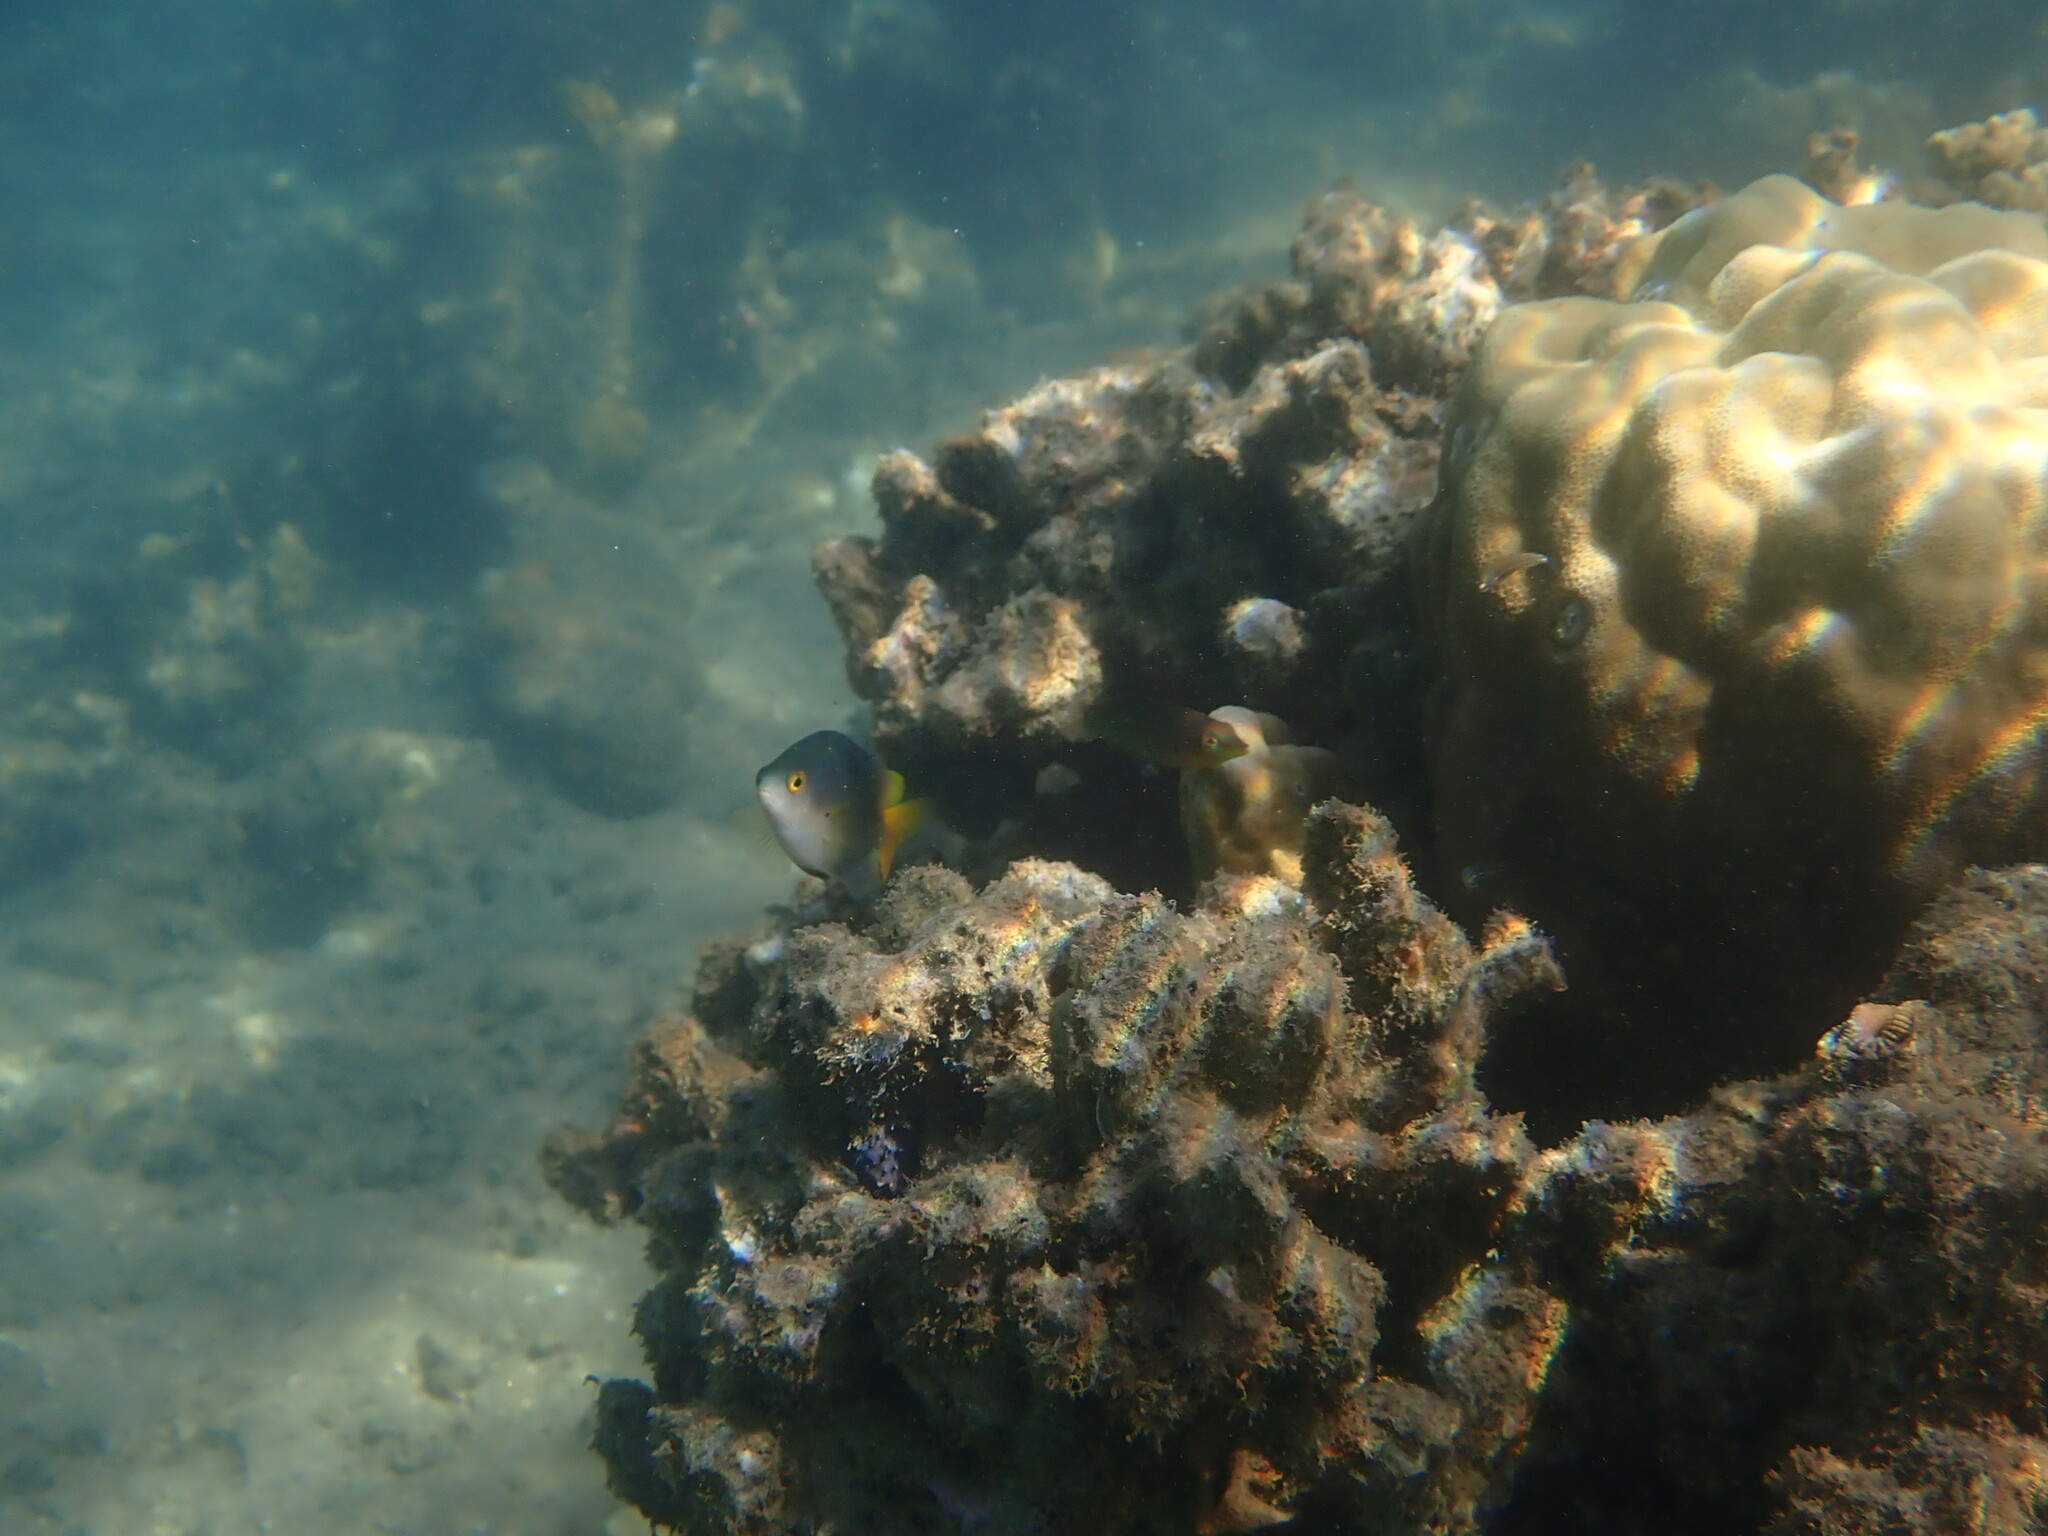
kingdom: Animalia
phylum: Chordata
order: Perciformes
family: Pomacentridae
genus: Pomacentrus
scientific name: Pomacentrus maafu
